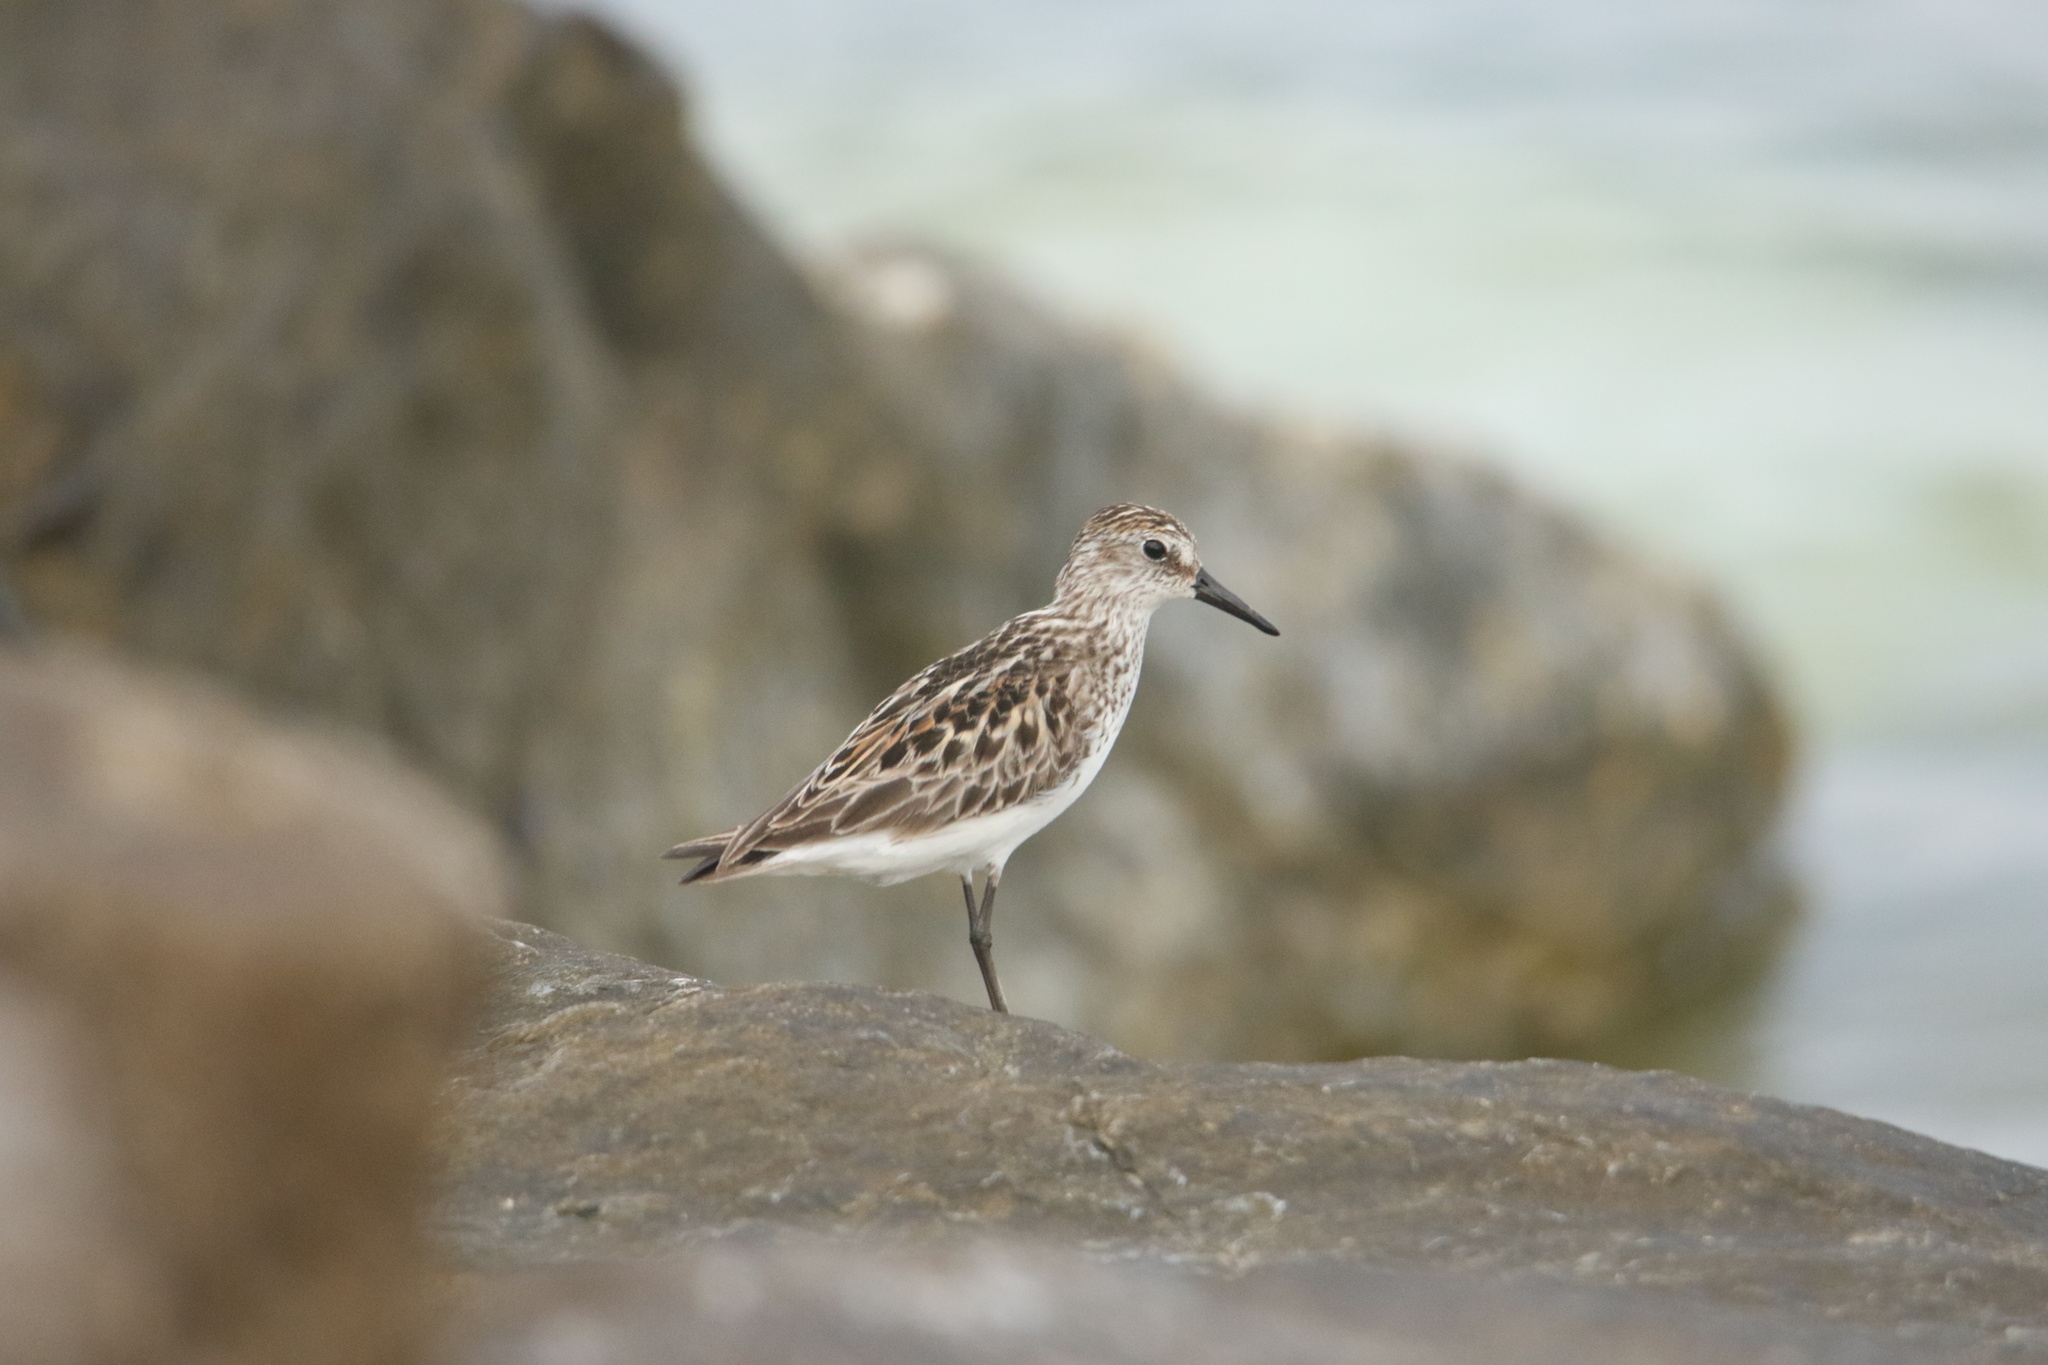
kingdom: Animalia
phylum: Chordata
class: Aves
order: Charadriiformes
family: Scolopacidae
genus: Calidris
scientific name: Calidris pusilla
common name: Semipalmated sandpiper
